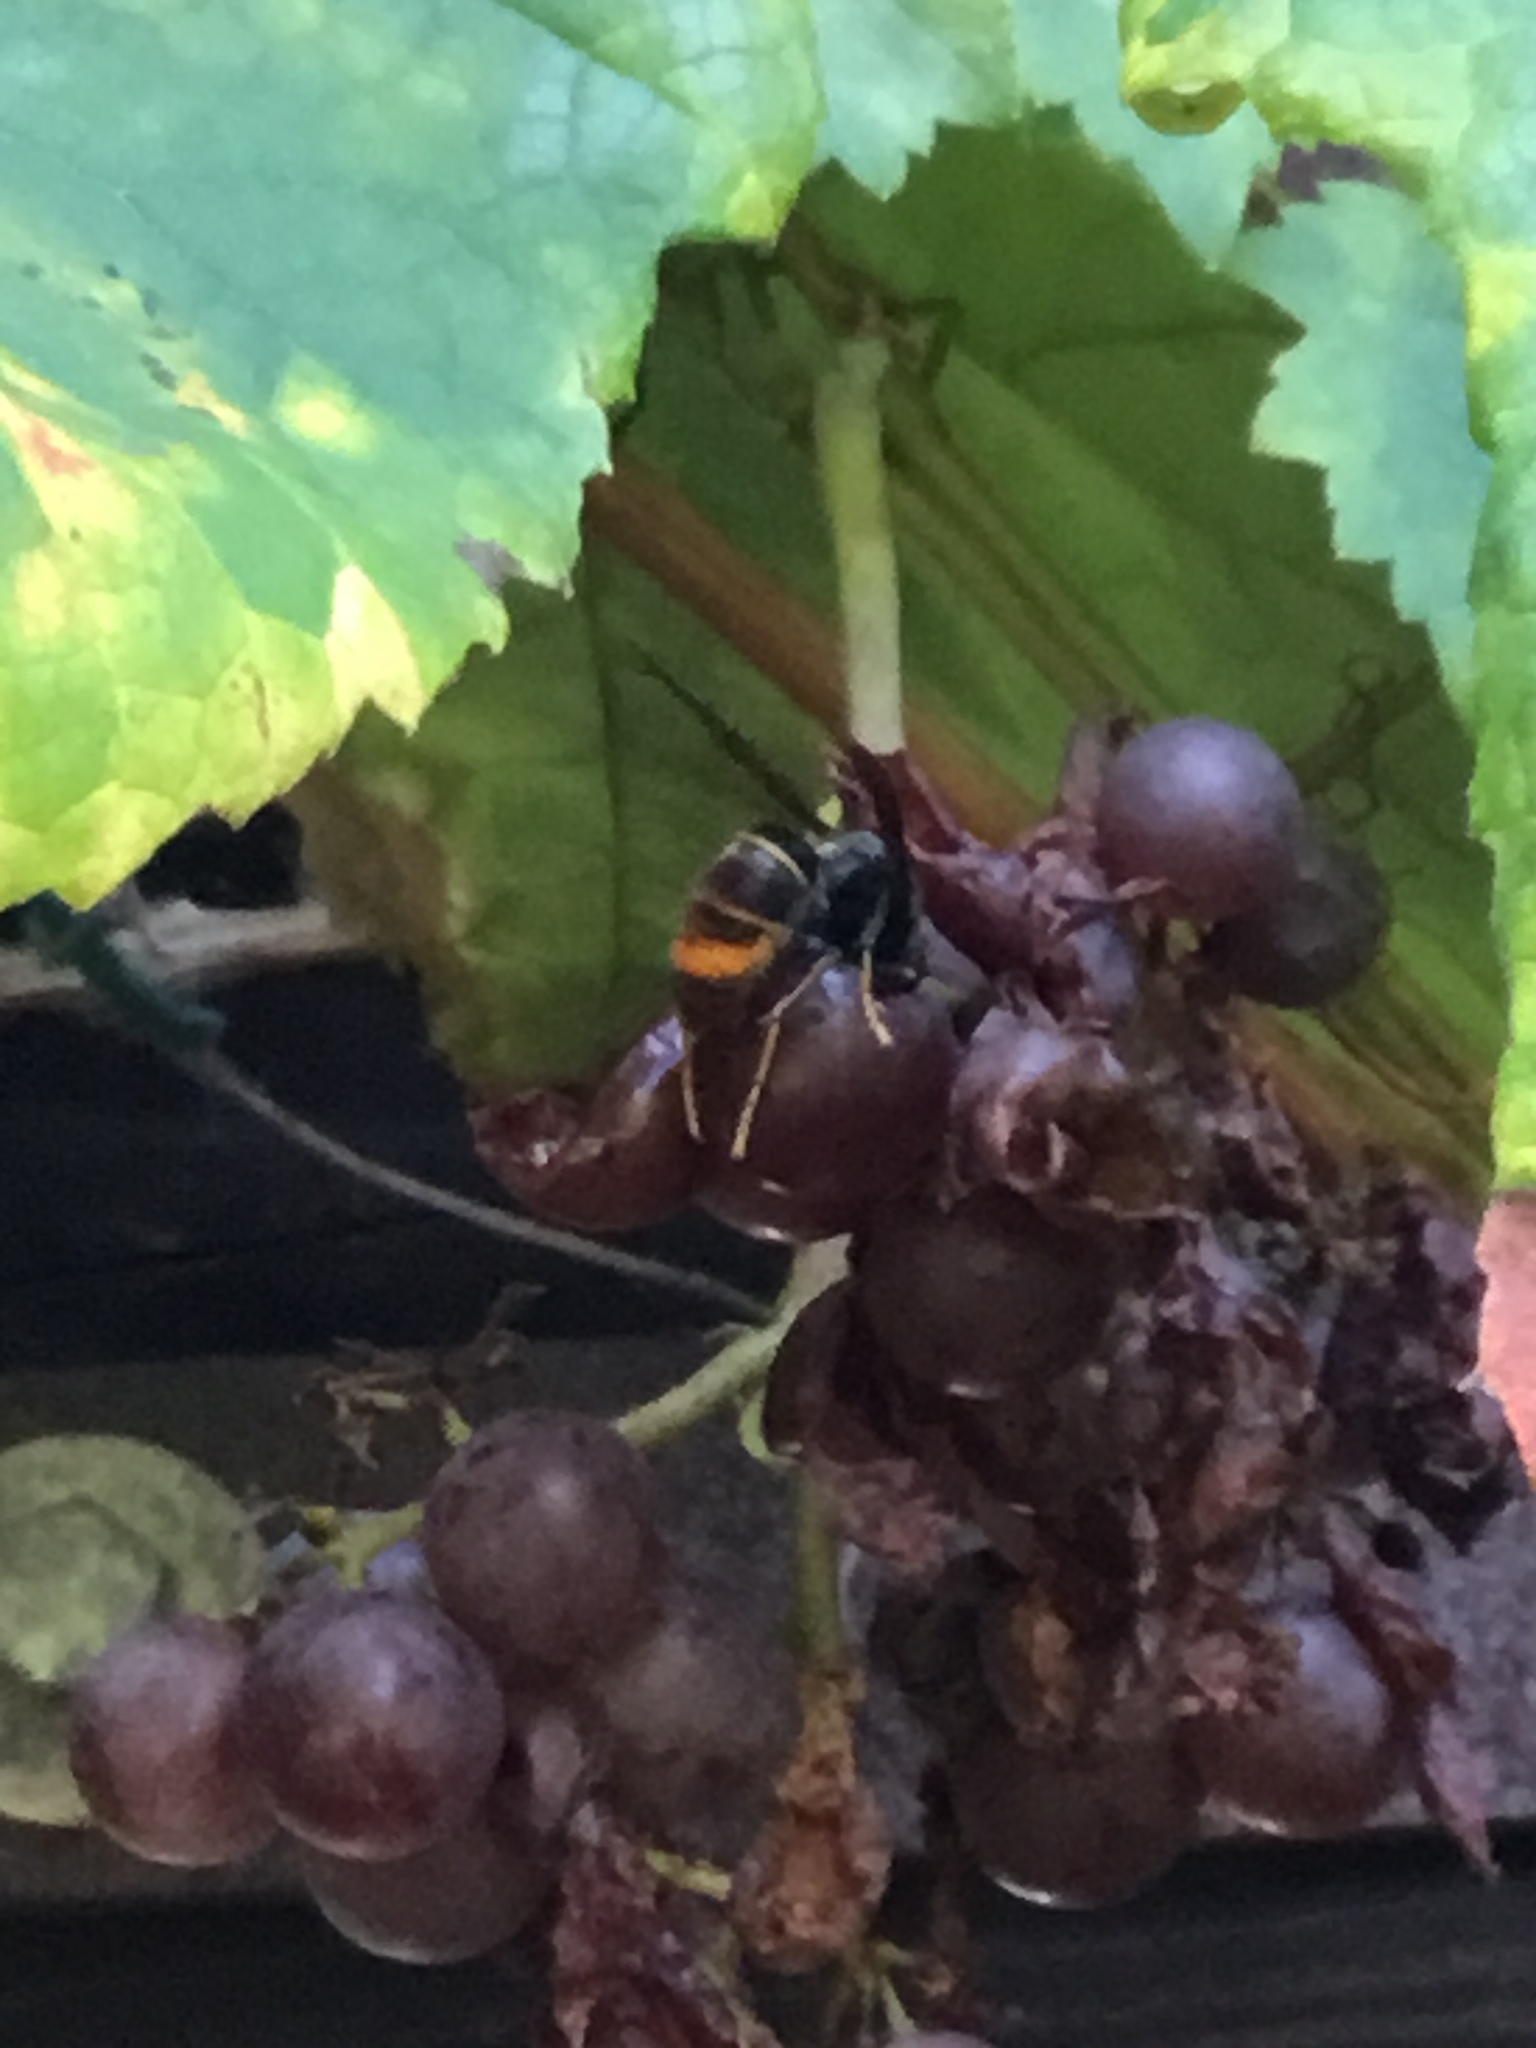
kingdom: Animalia
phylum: Arthropoda
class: Insecta
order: Hymenoptera
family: Vespidae
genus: Vespa
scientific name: Vespa velutina
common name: Asian hornet
